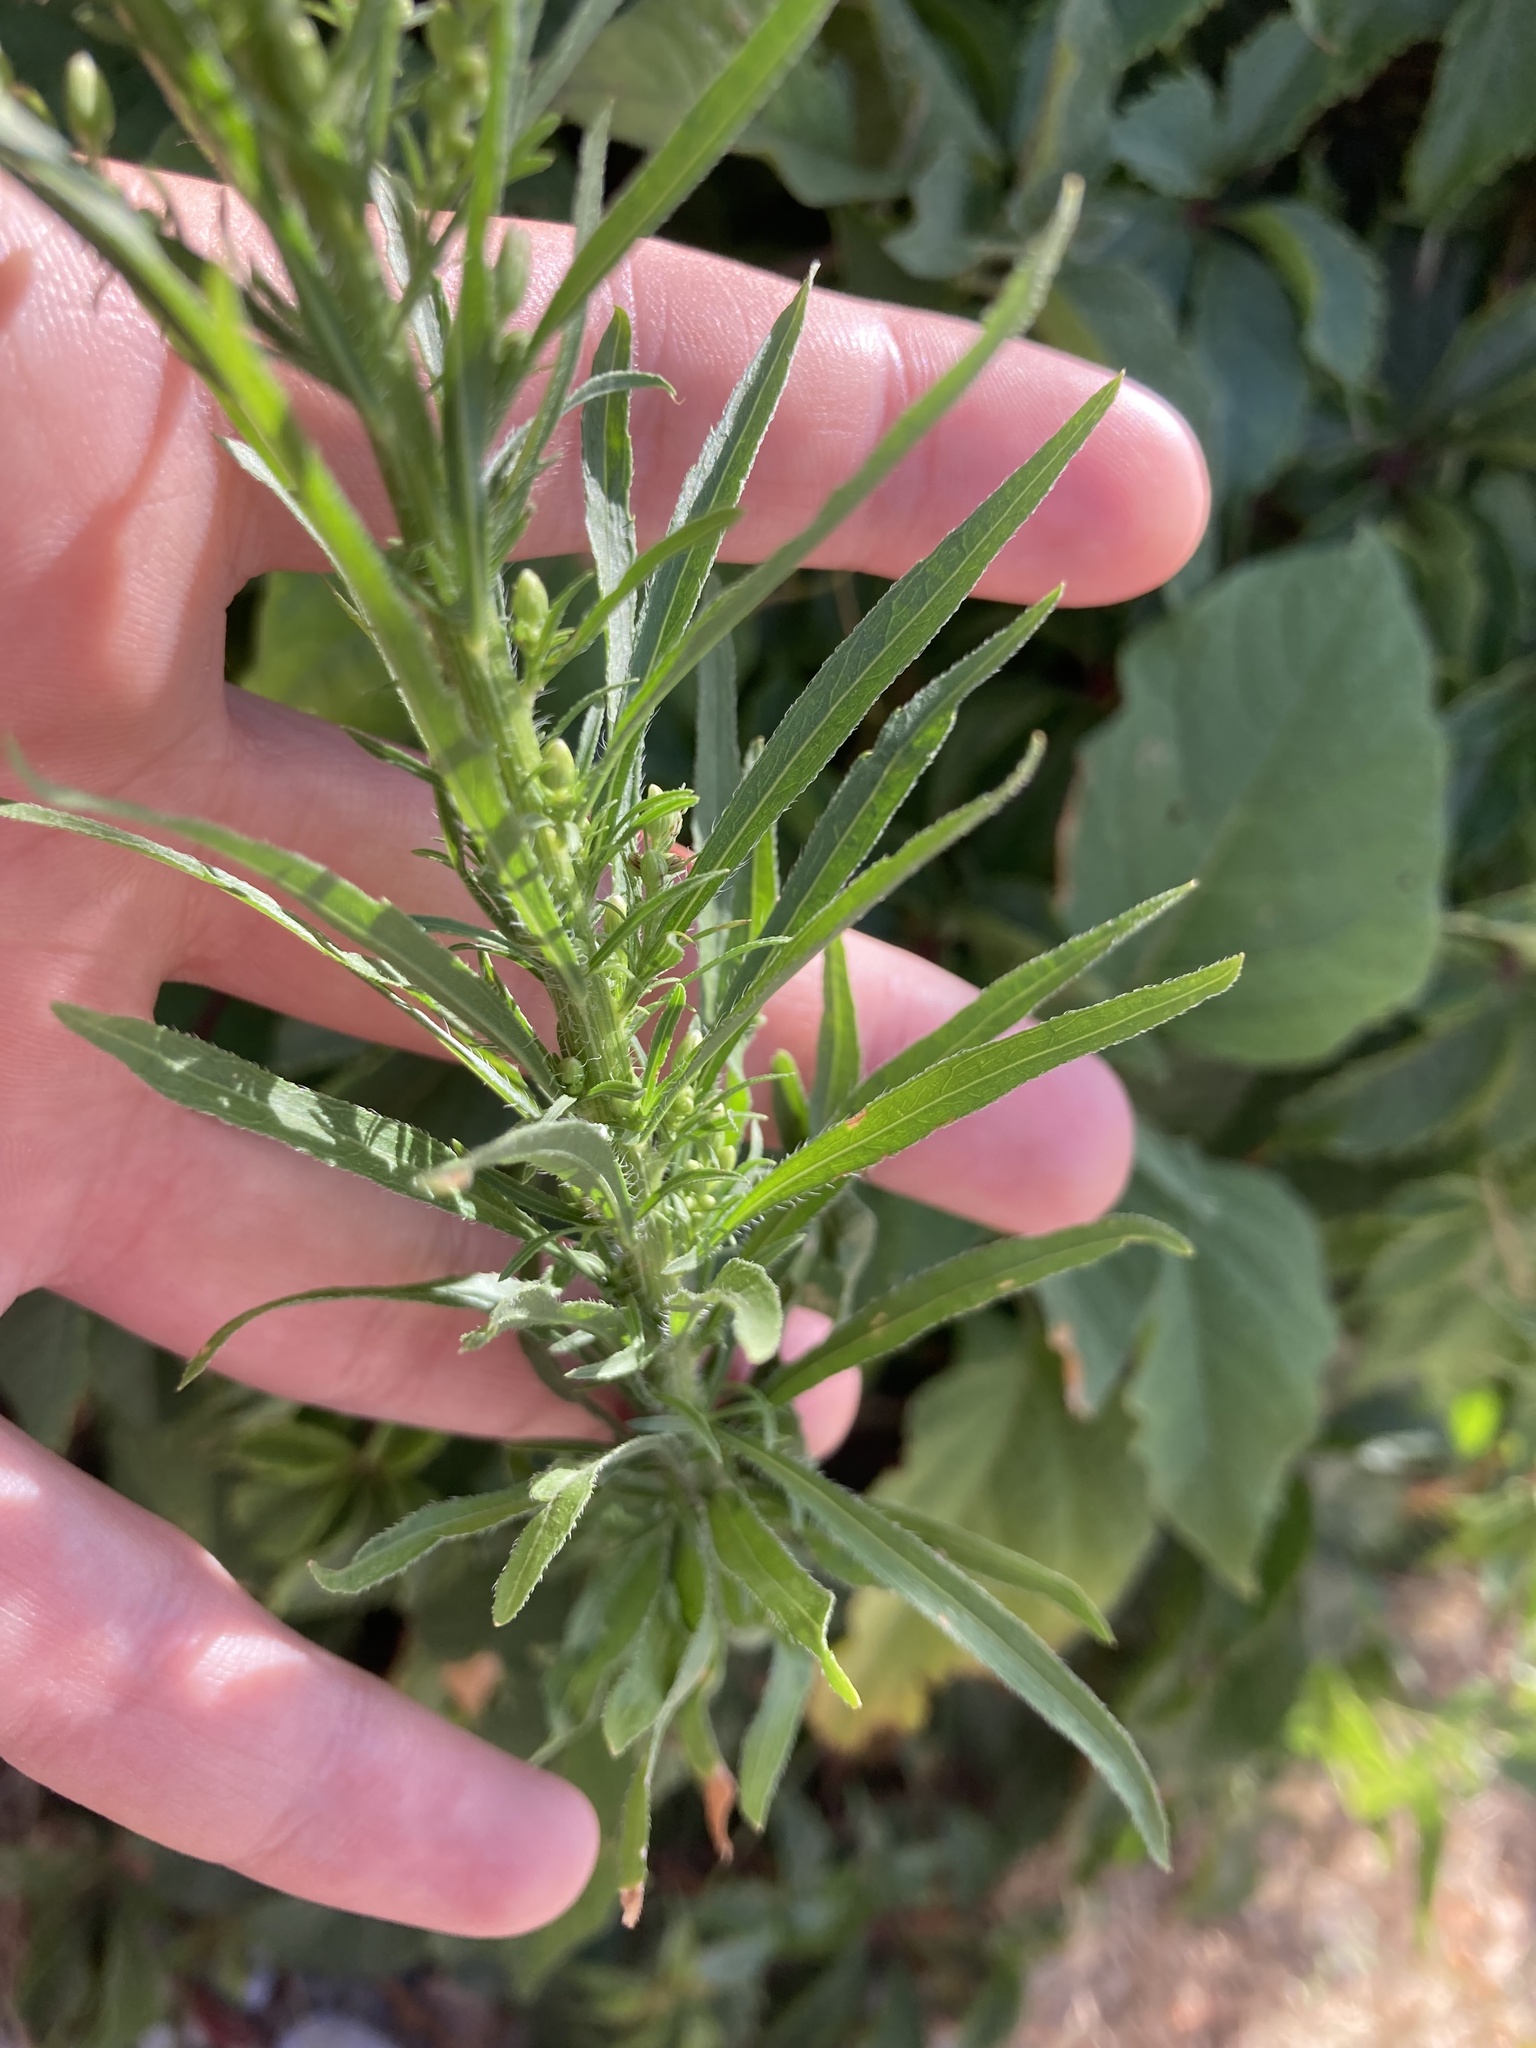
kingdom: Plantae
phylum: Tracheophyta
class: Magnoliopsida
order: Asterales
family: Asteraceae
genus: Erigeron
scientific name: Erigeron canadensis
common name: Canadian fleabane
